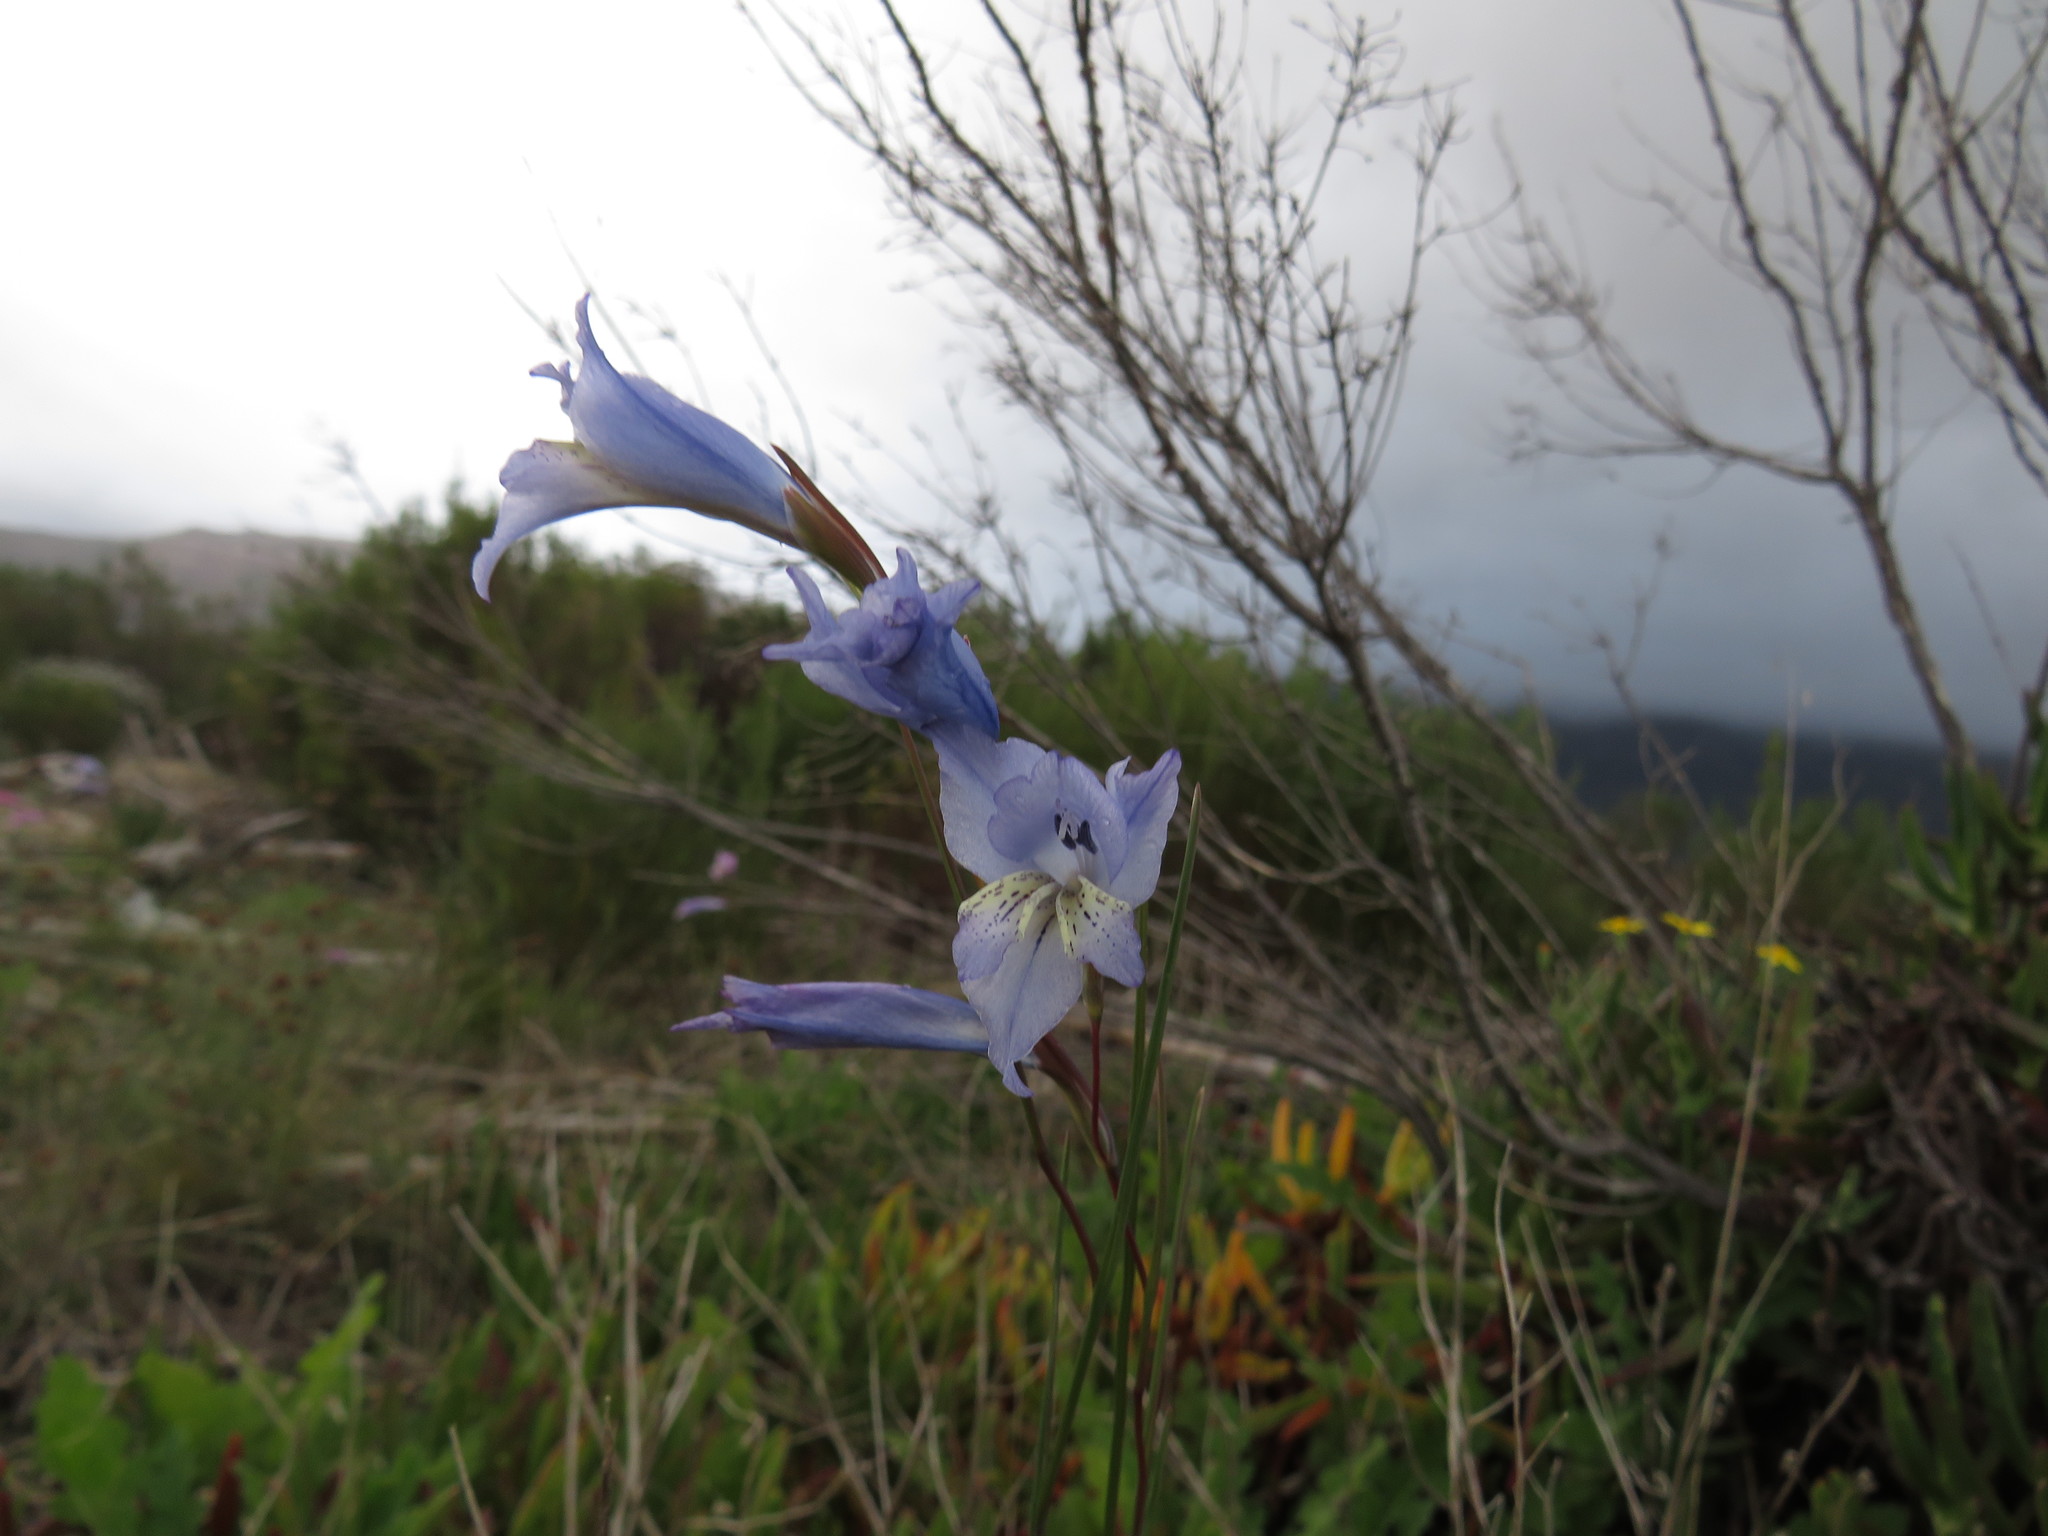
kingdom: Plantae
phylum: Tracheophyta
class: Liliopsida
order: Asparagales
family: Iridaceae
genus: Gladiolus
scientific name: Gladiolus gracilis
